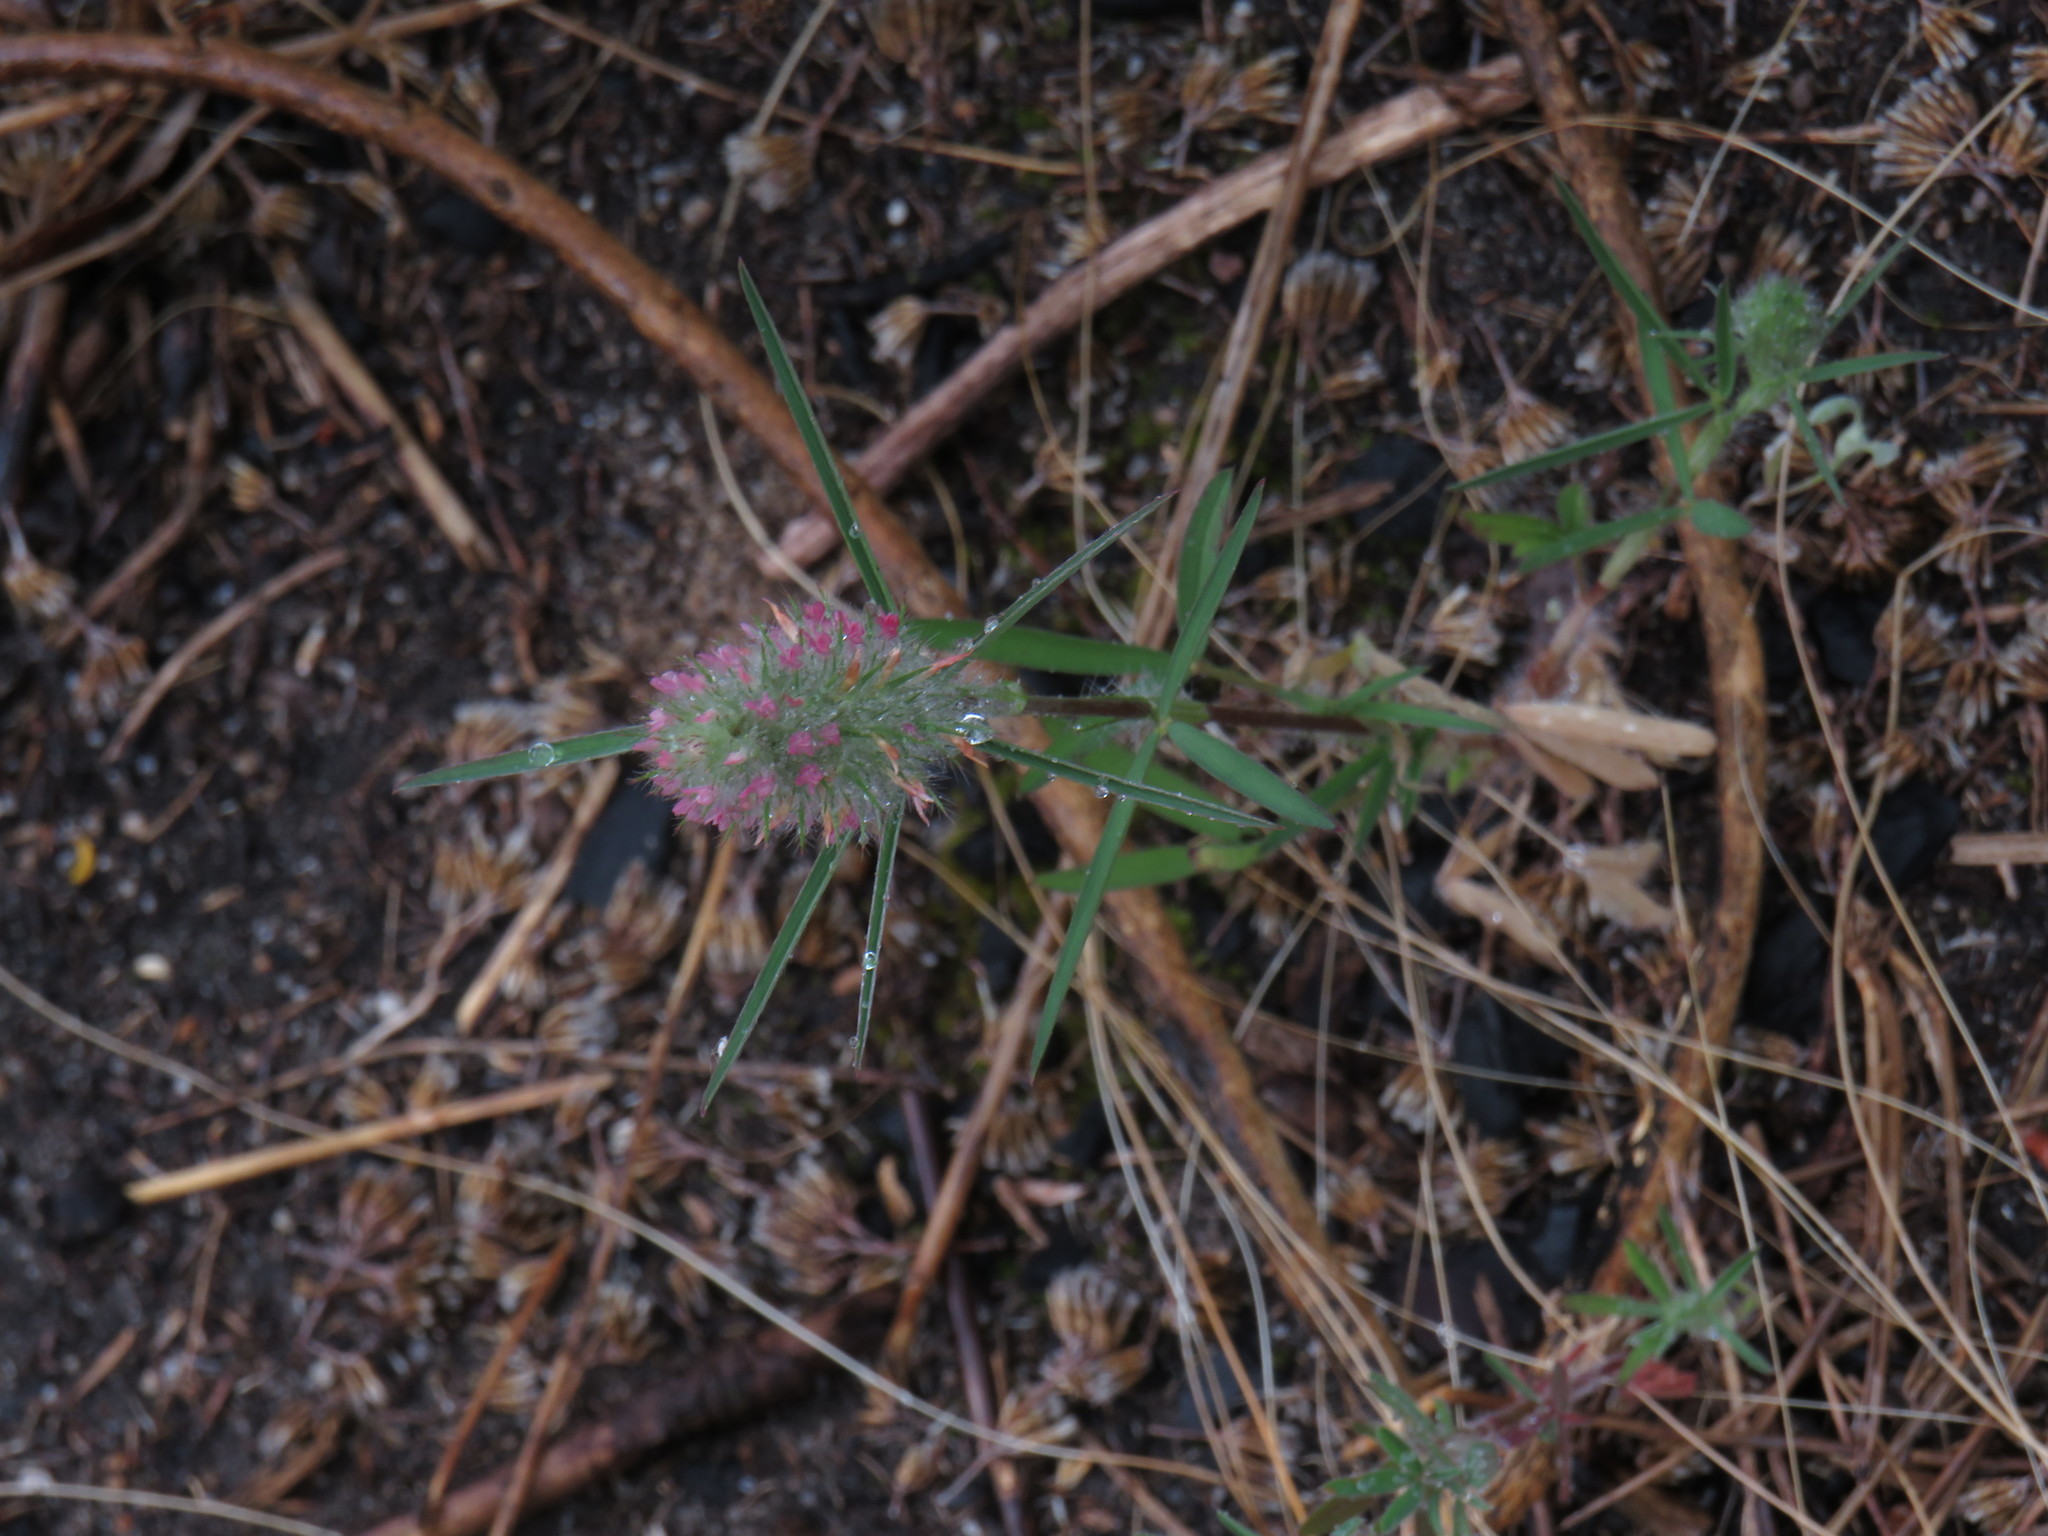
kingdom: Plantae
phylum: Tracheophyta
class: Magnoliopsida
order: Fabales
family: Fabaceae
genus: Trifolium
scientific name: Trifolium angustifolium
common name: Narrow clover
